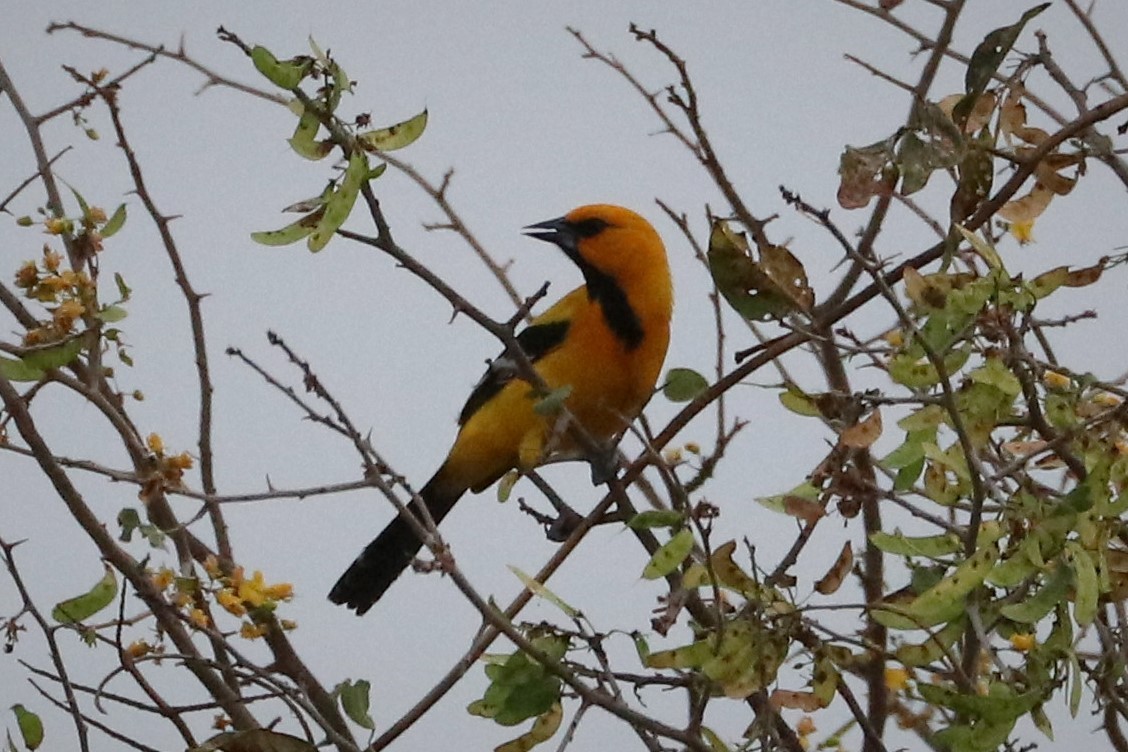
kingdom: Animalia
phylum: Chordata
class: Aves
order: Passeriformes
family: Icteridae
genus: Icterus
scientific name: Icterus nigrogularis
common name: Yellow oriole
